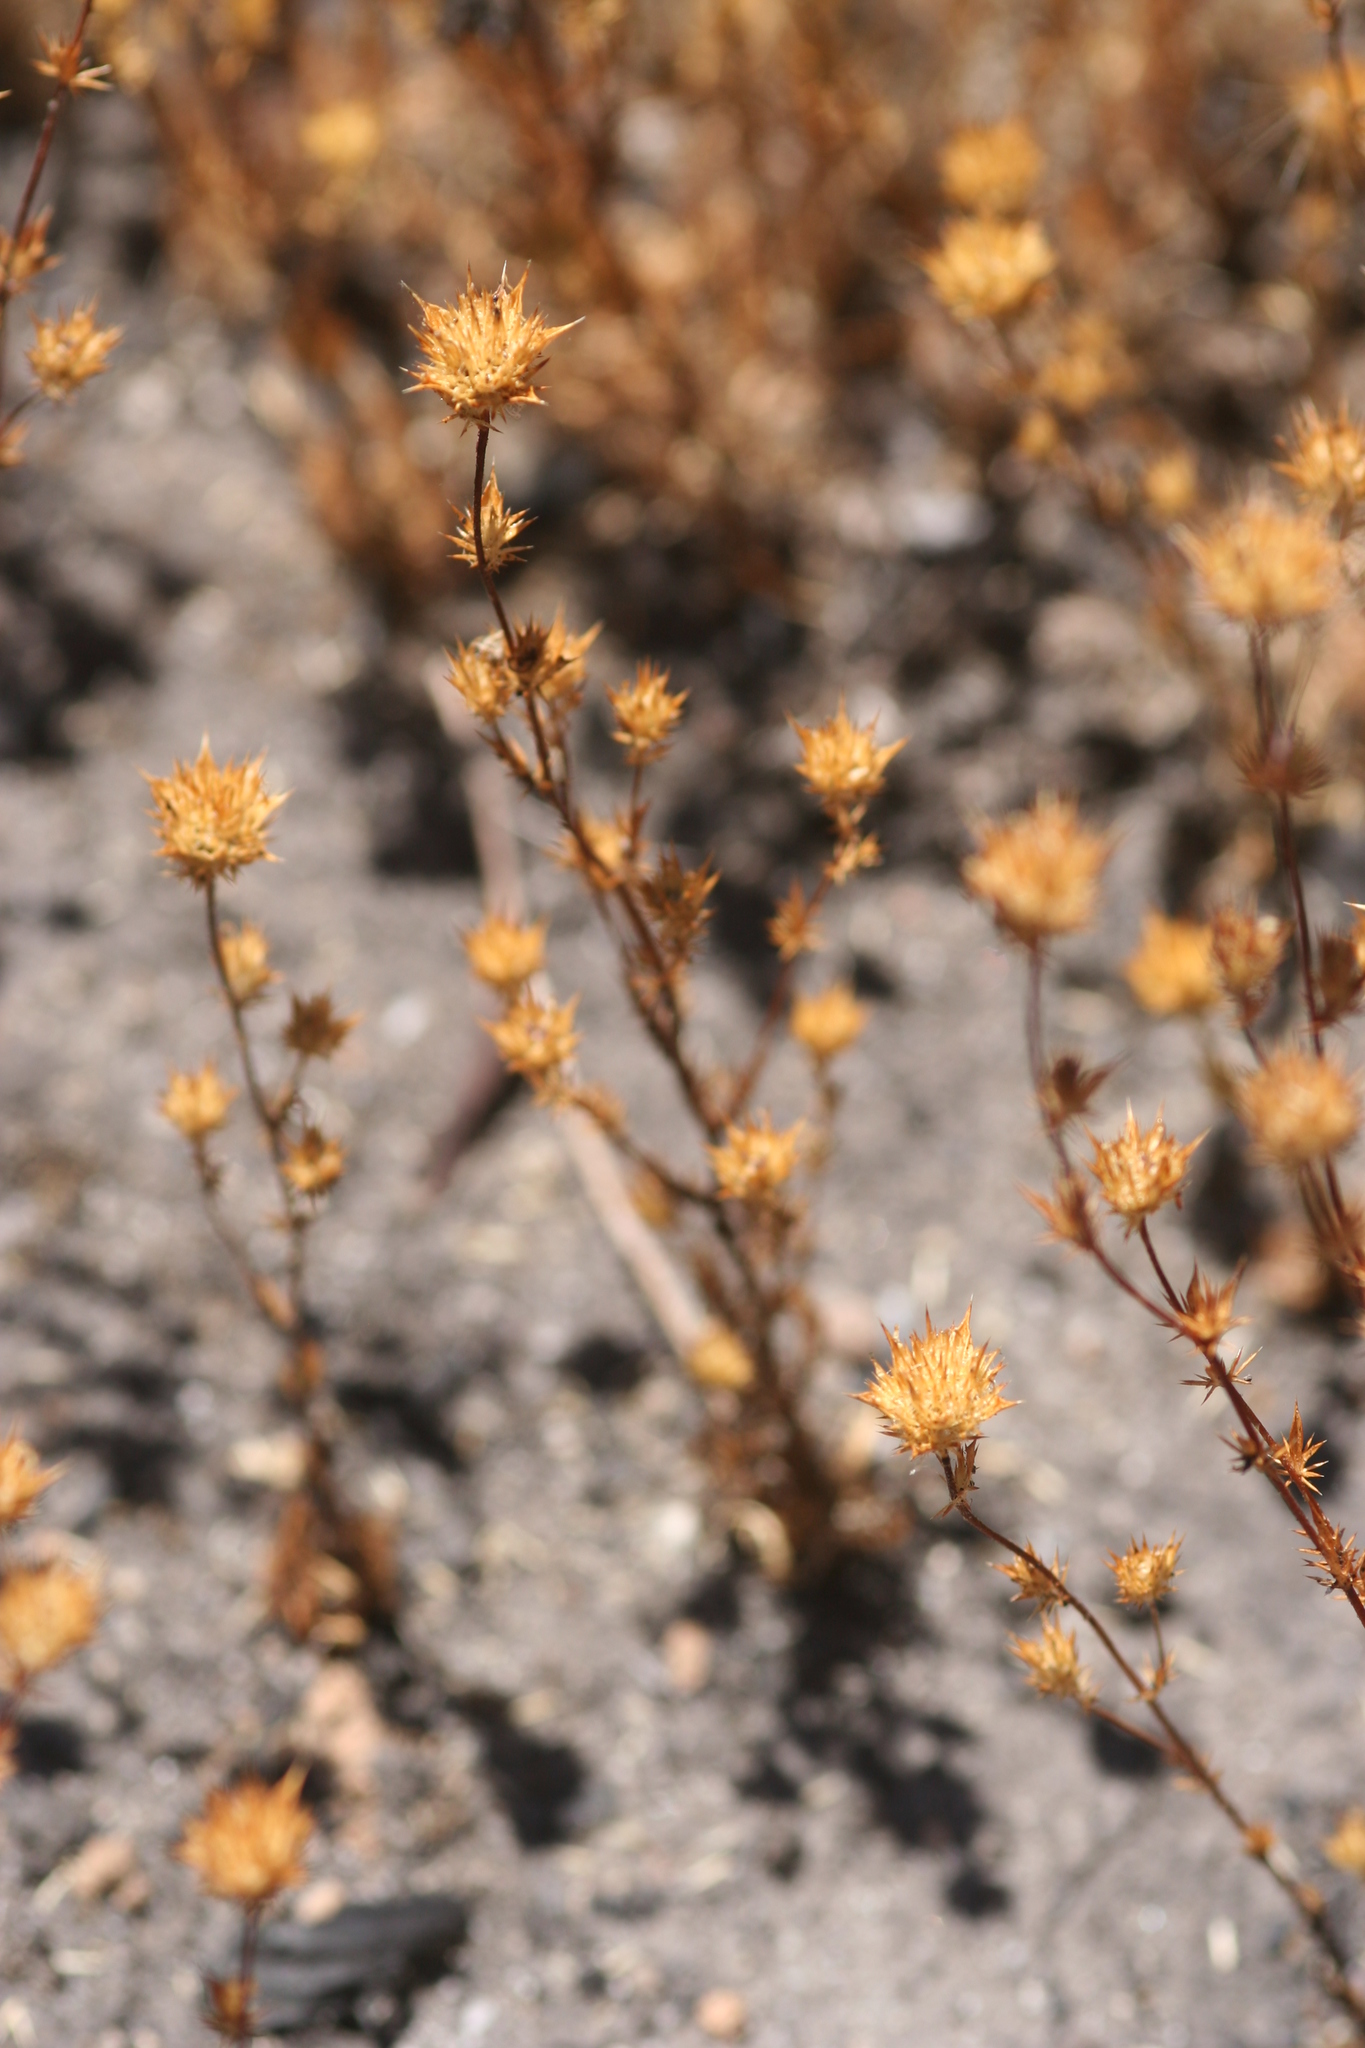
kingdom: Plantae
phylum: Tracheophyta
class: Magnoliopsida
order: Ericales
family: Polemoniaceae
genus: Navarretia
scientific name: Navarretia mellita
